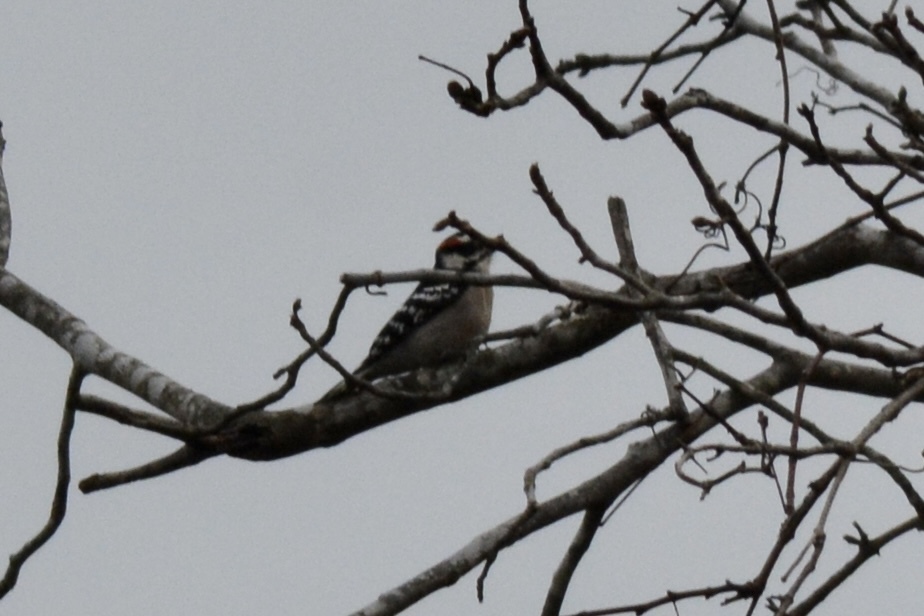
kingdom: Animalia
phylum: Chordata
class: Aves
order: Piciformes
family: Picidae
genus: Dryobates
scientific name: Dryobates pubescens
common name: Downy woodpecker
